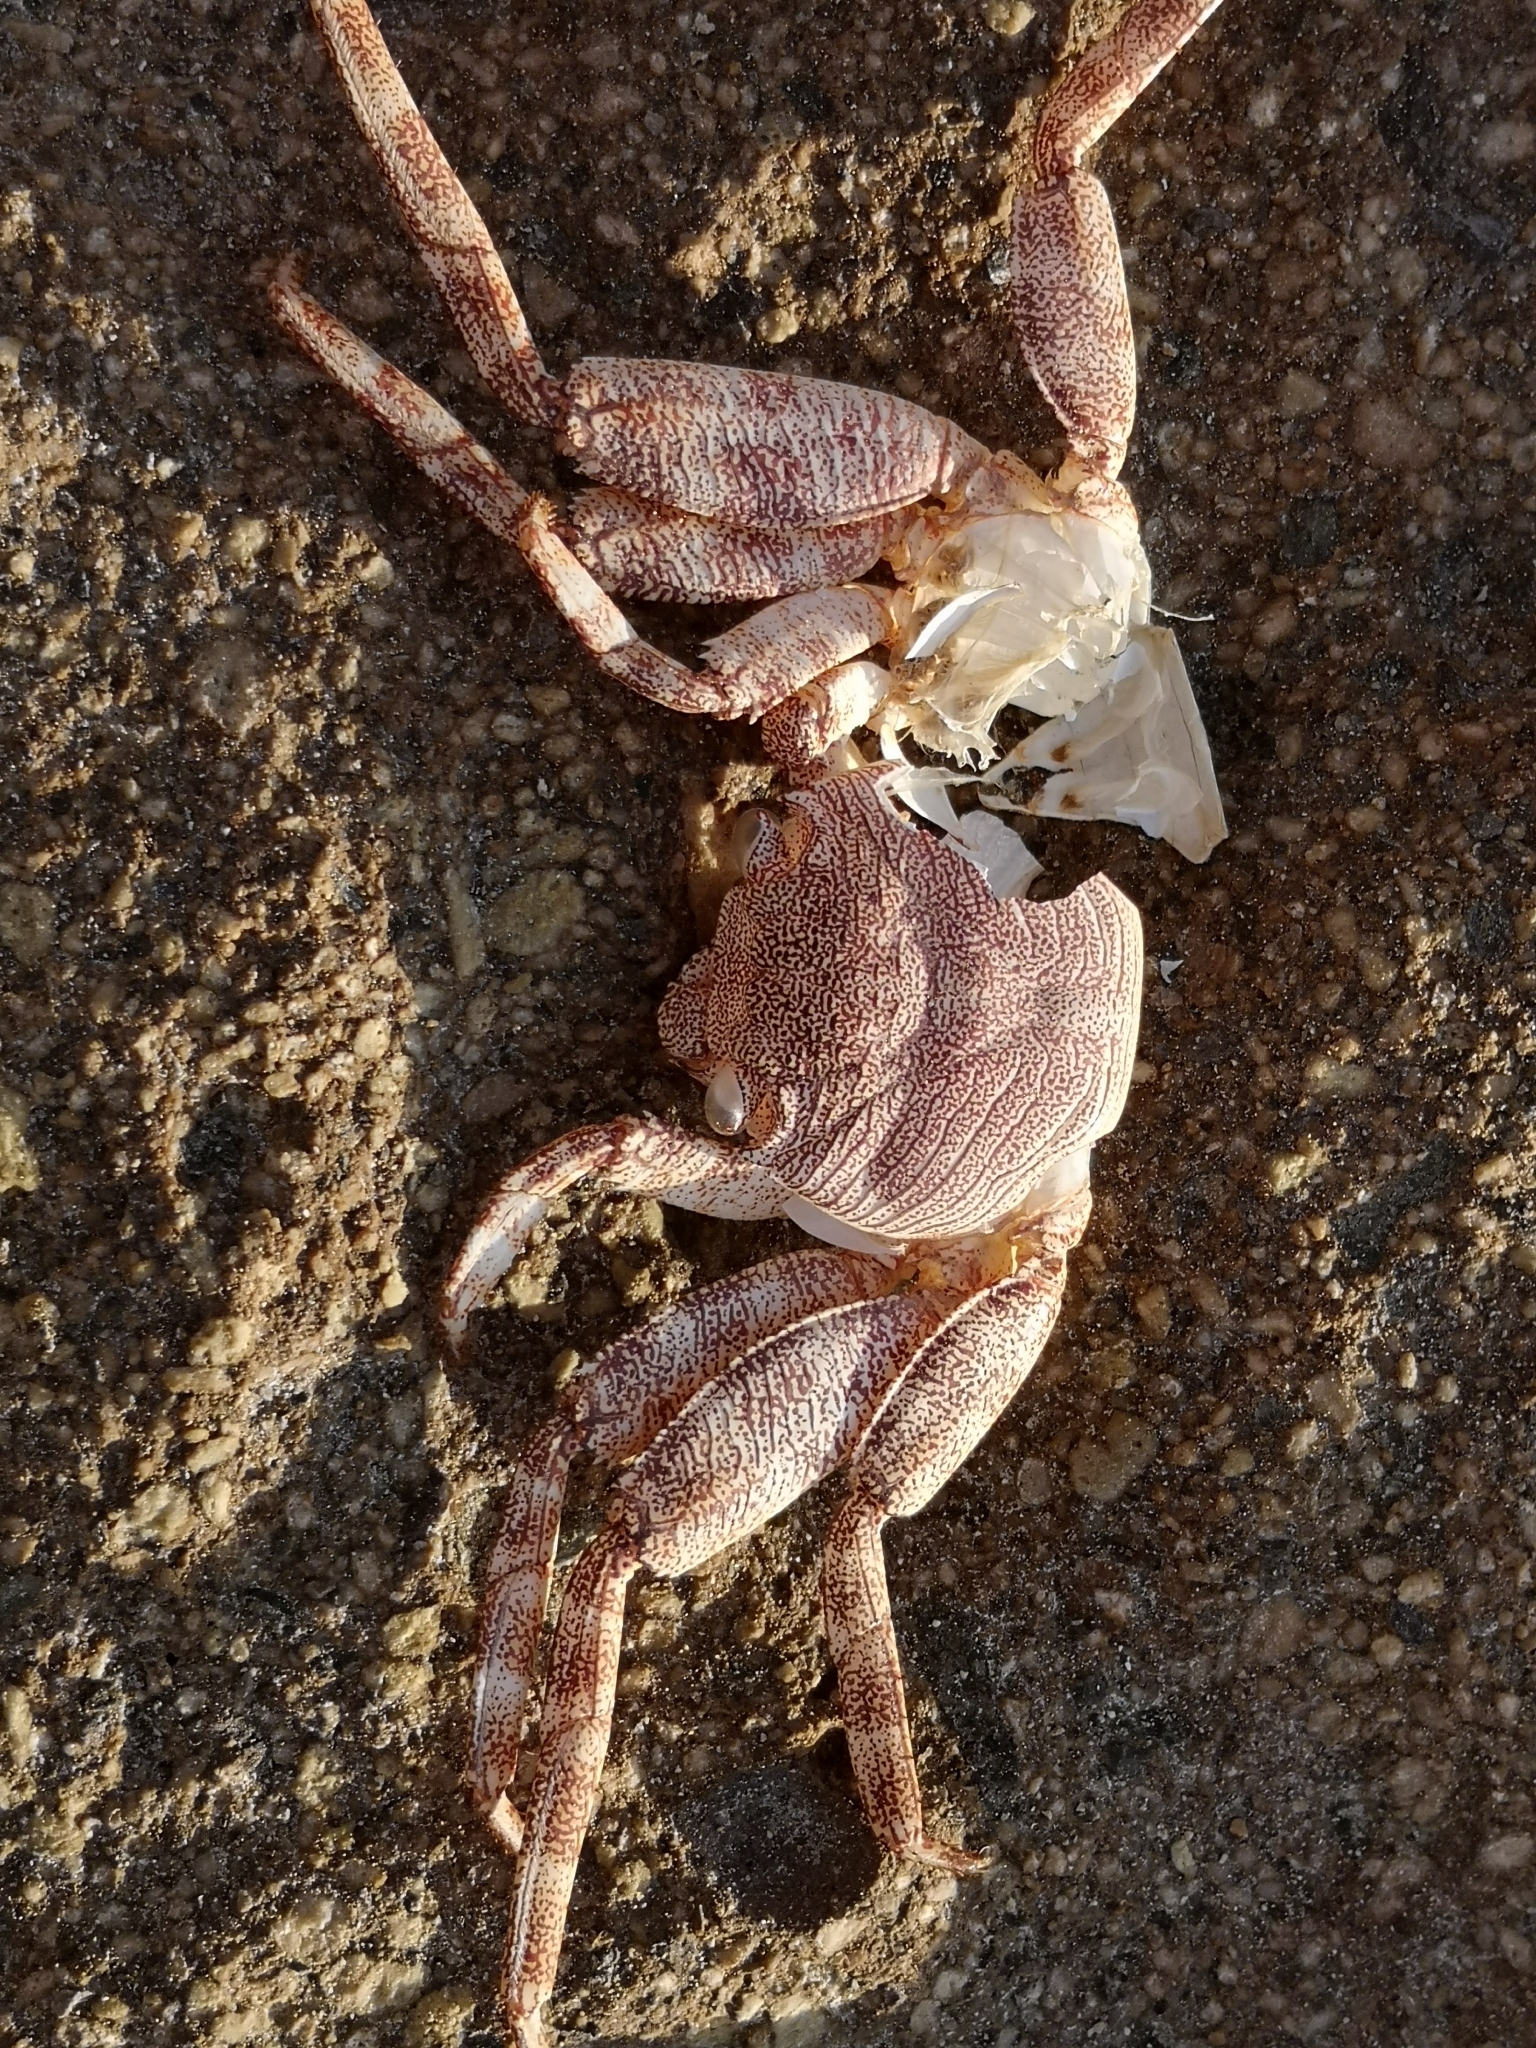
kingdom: Animalia
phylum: Arthropoda
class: Malacostraca
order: Decapoda
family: Grapsidae
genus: Grapsus
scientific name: Grapsus adscensionis
